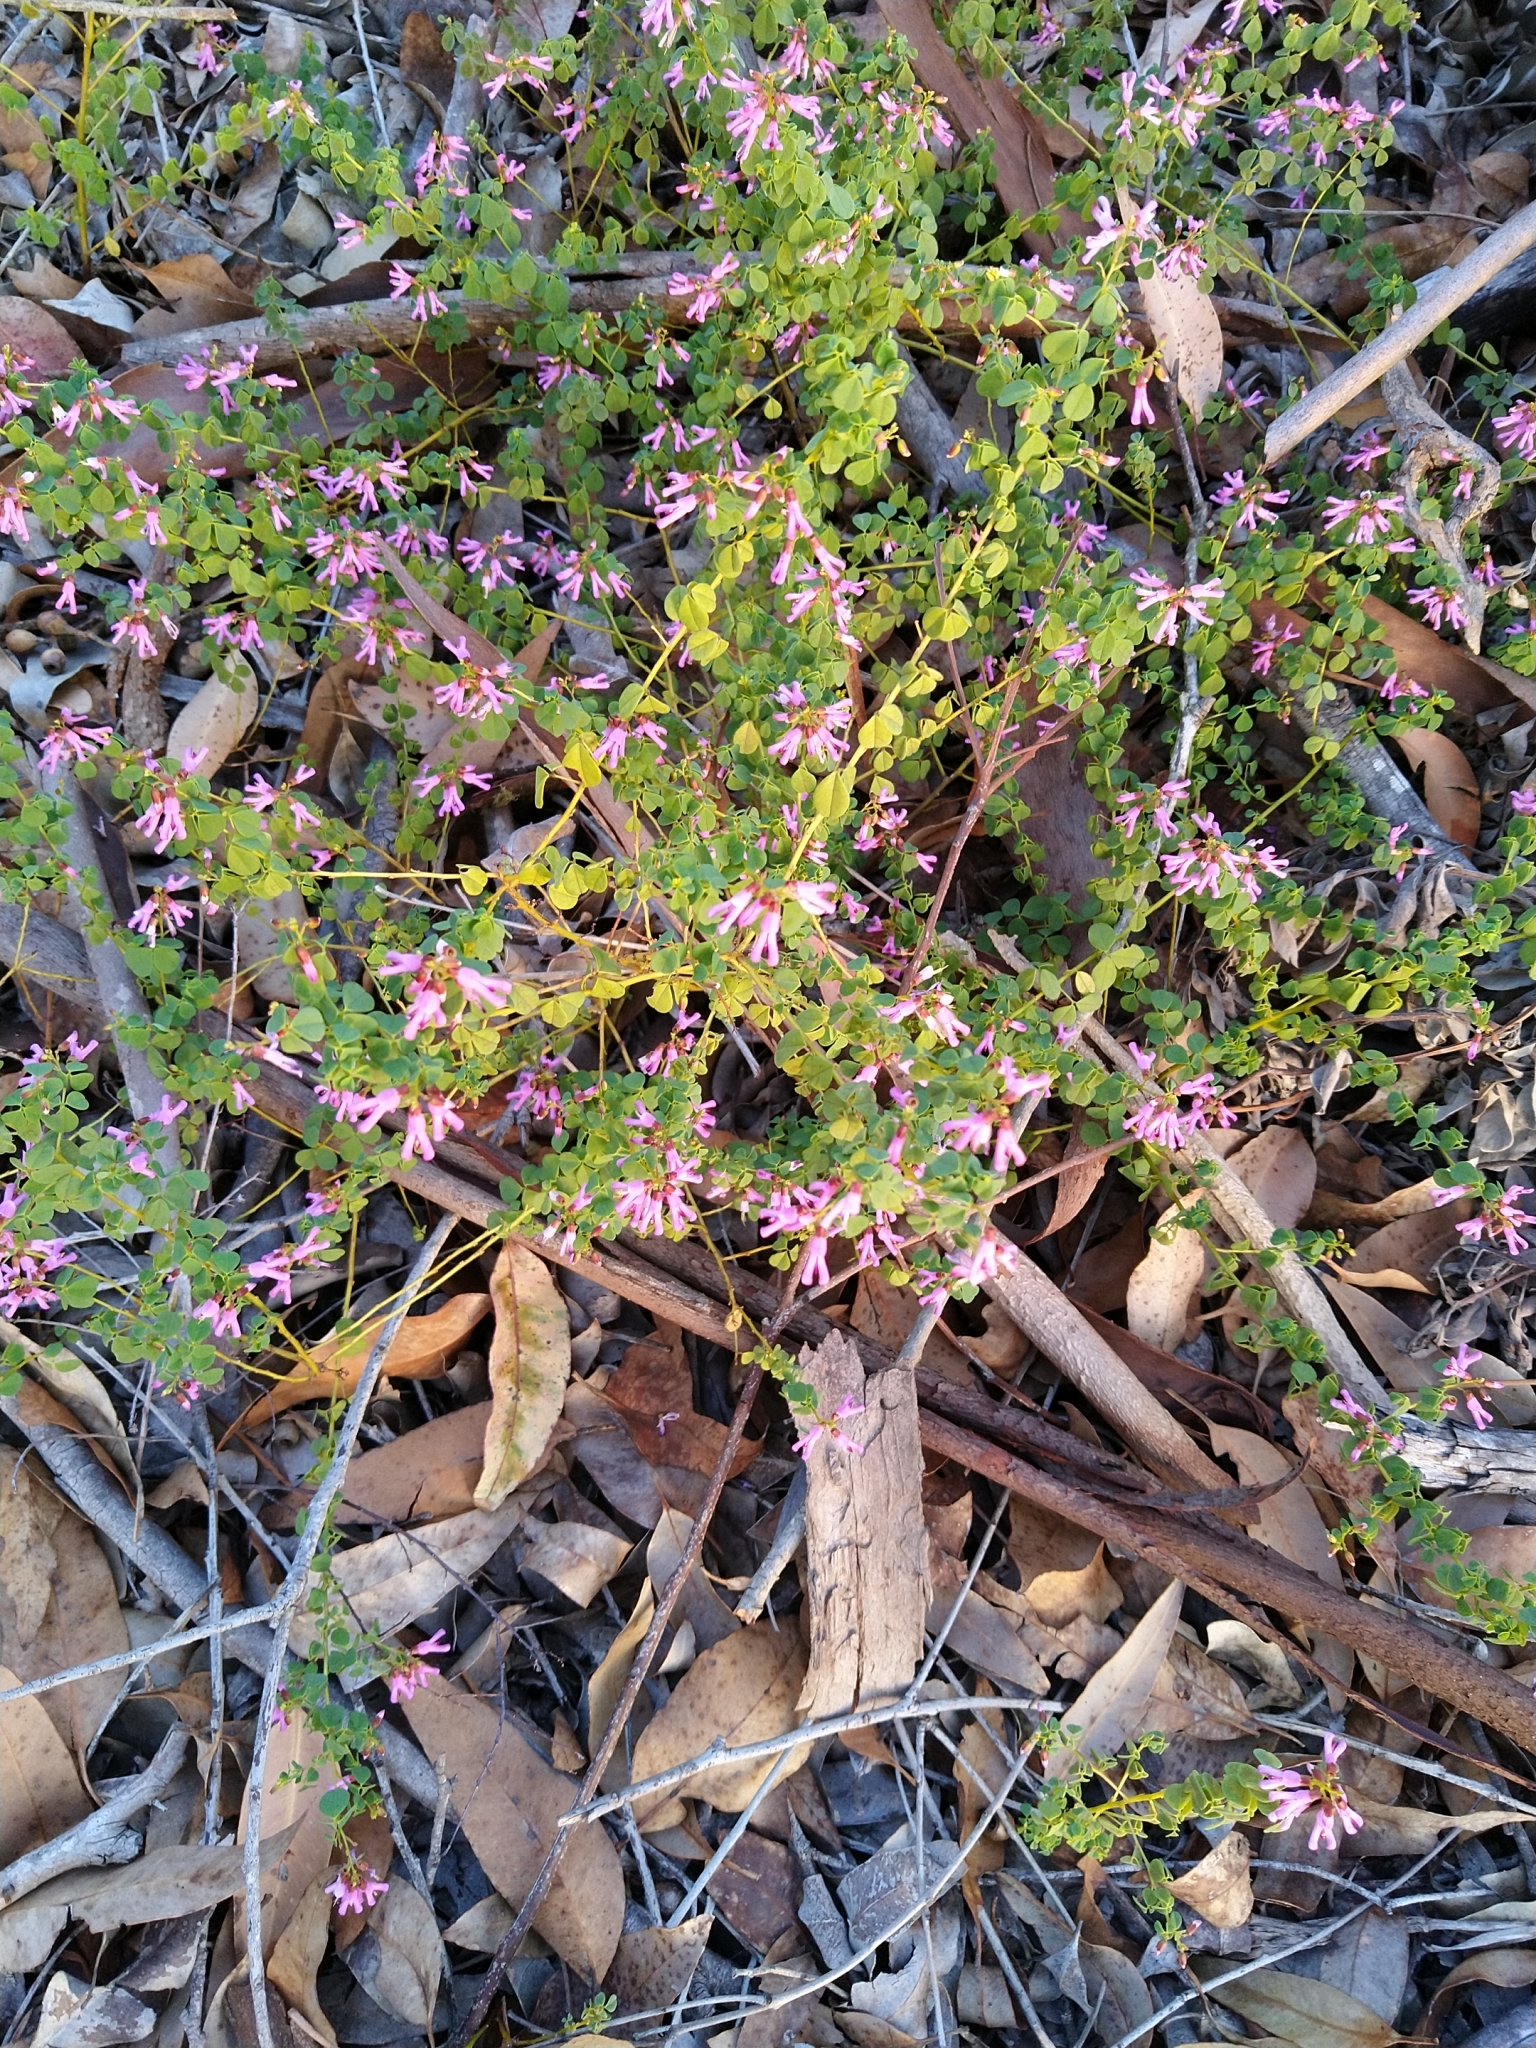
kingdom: Plantae
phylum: Tracheophyta
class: Magnoliopsida
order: Fabales
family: Fabaceae
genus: Hypocalyptus
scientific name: Hypocalyptus oxalidifolius
